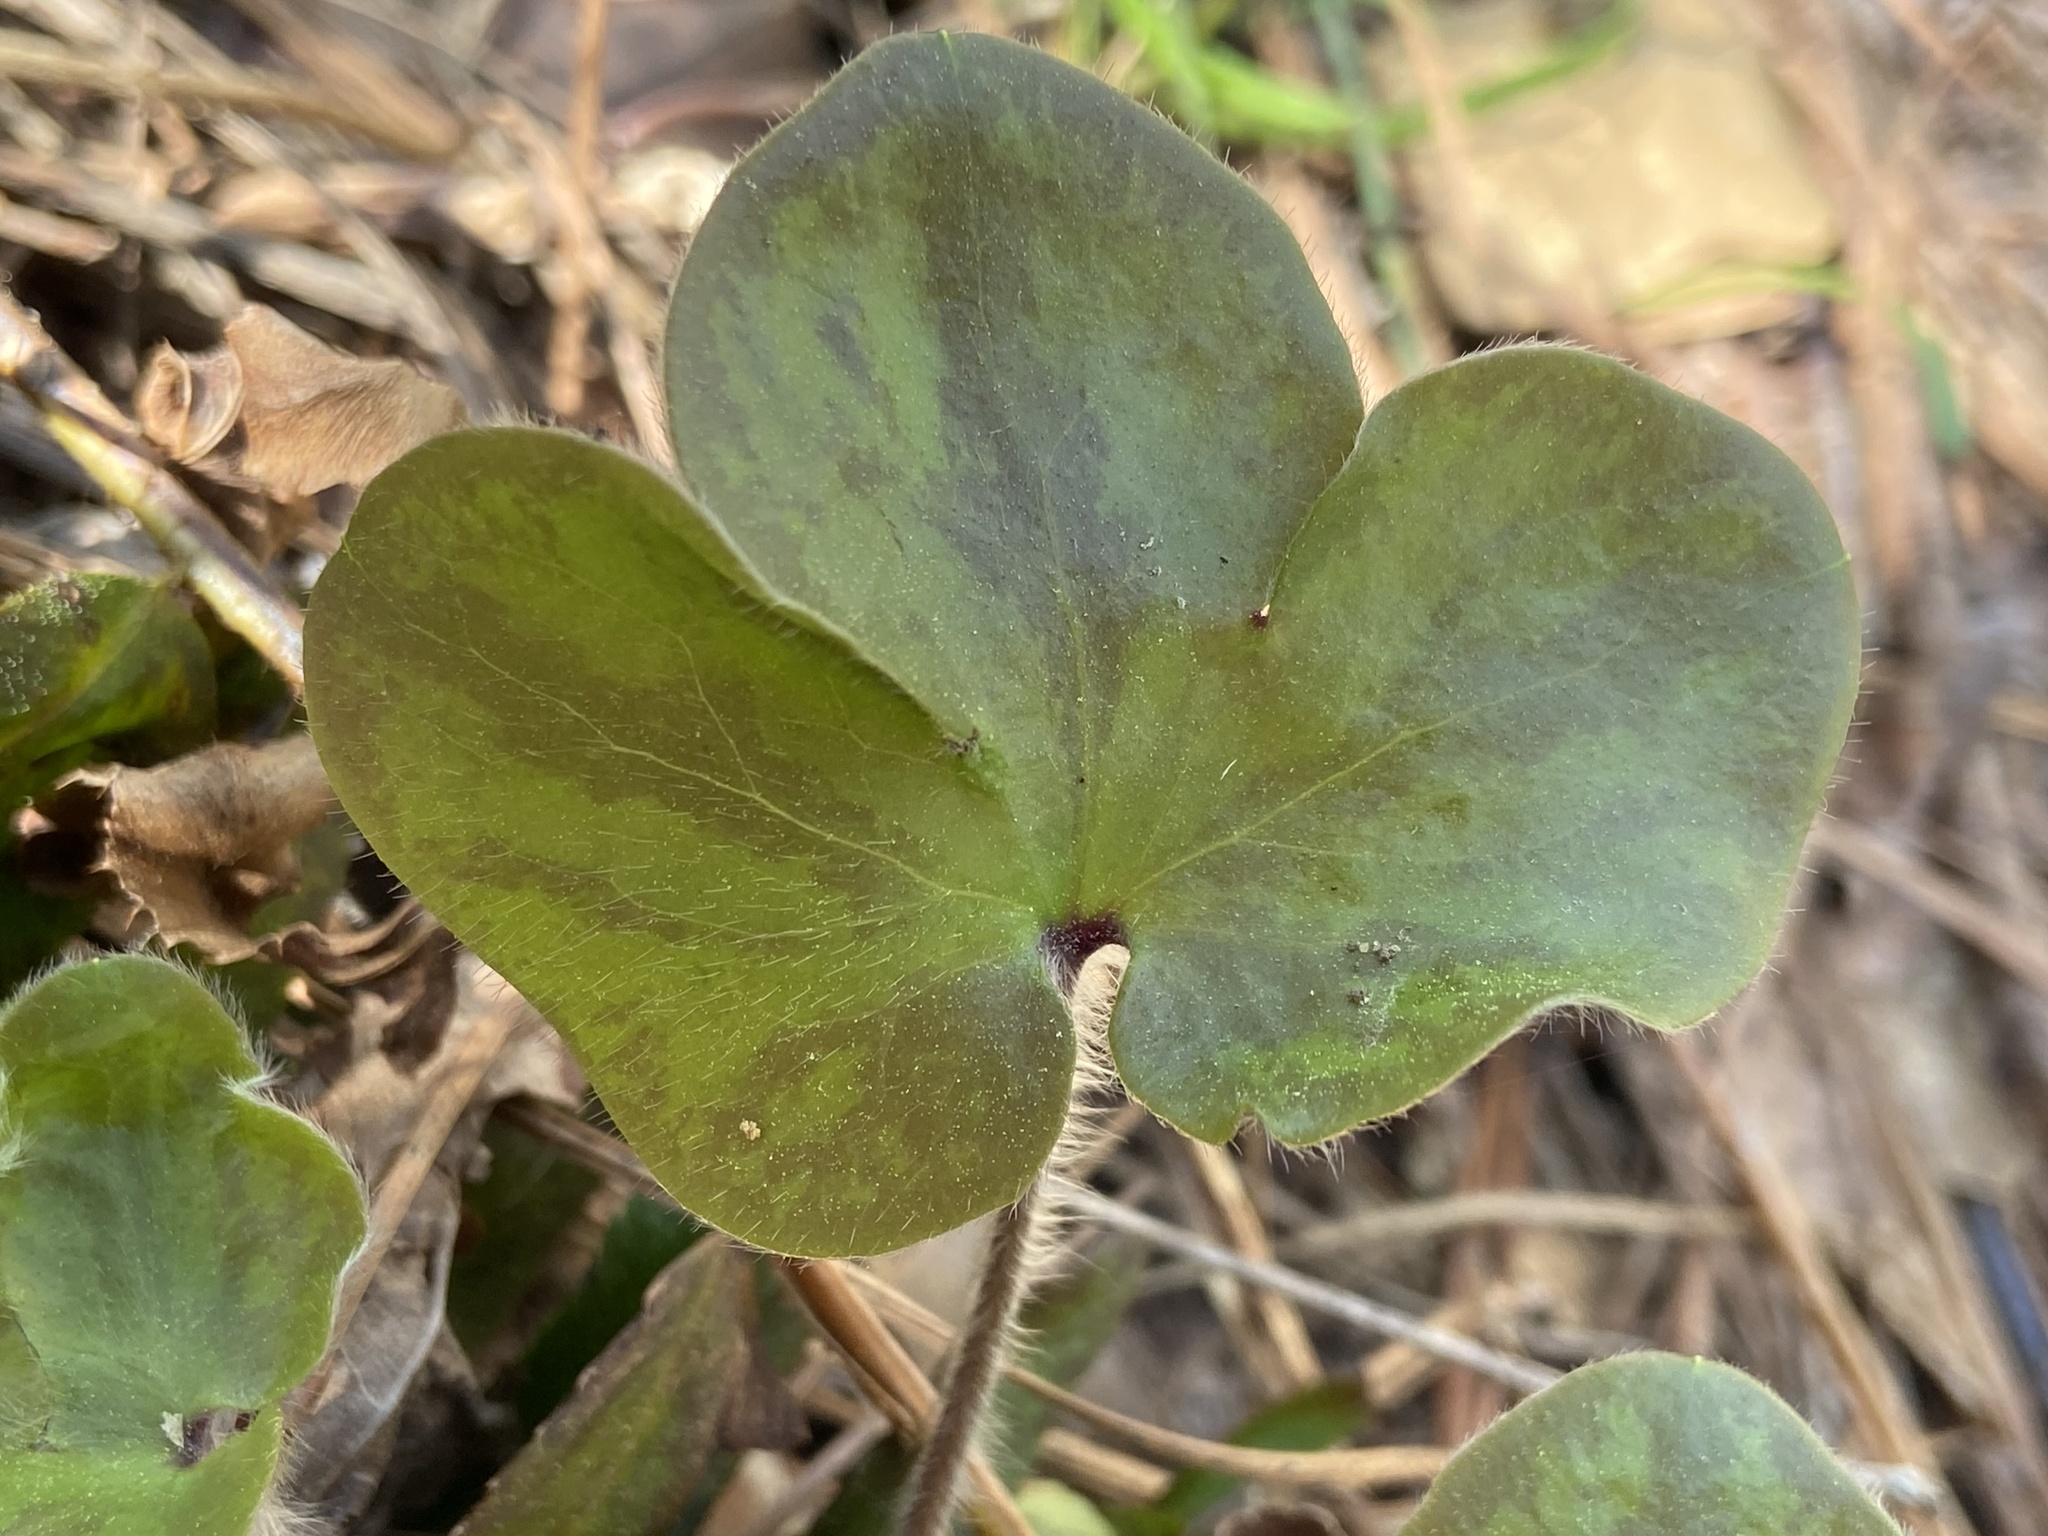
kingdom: Plantae
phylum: Tracheophyta
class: Magnoliopsida
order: Ranunculales
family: Ranunculaceae
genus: Hepatica
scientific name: Hepatica americana
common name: American hepatica
